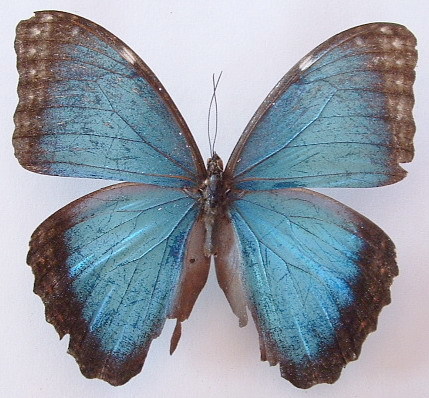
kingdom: Animalia
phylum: Arthropoda
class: Insecta
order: Lepidoptera
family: Nymphalidae
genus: Morpho
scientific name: Morpho helenor
